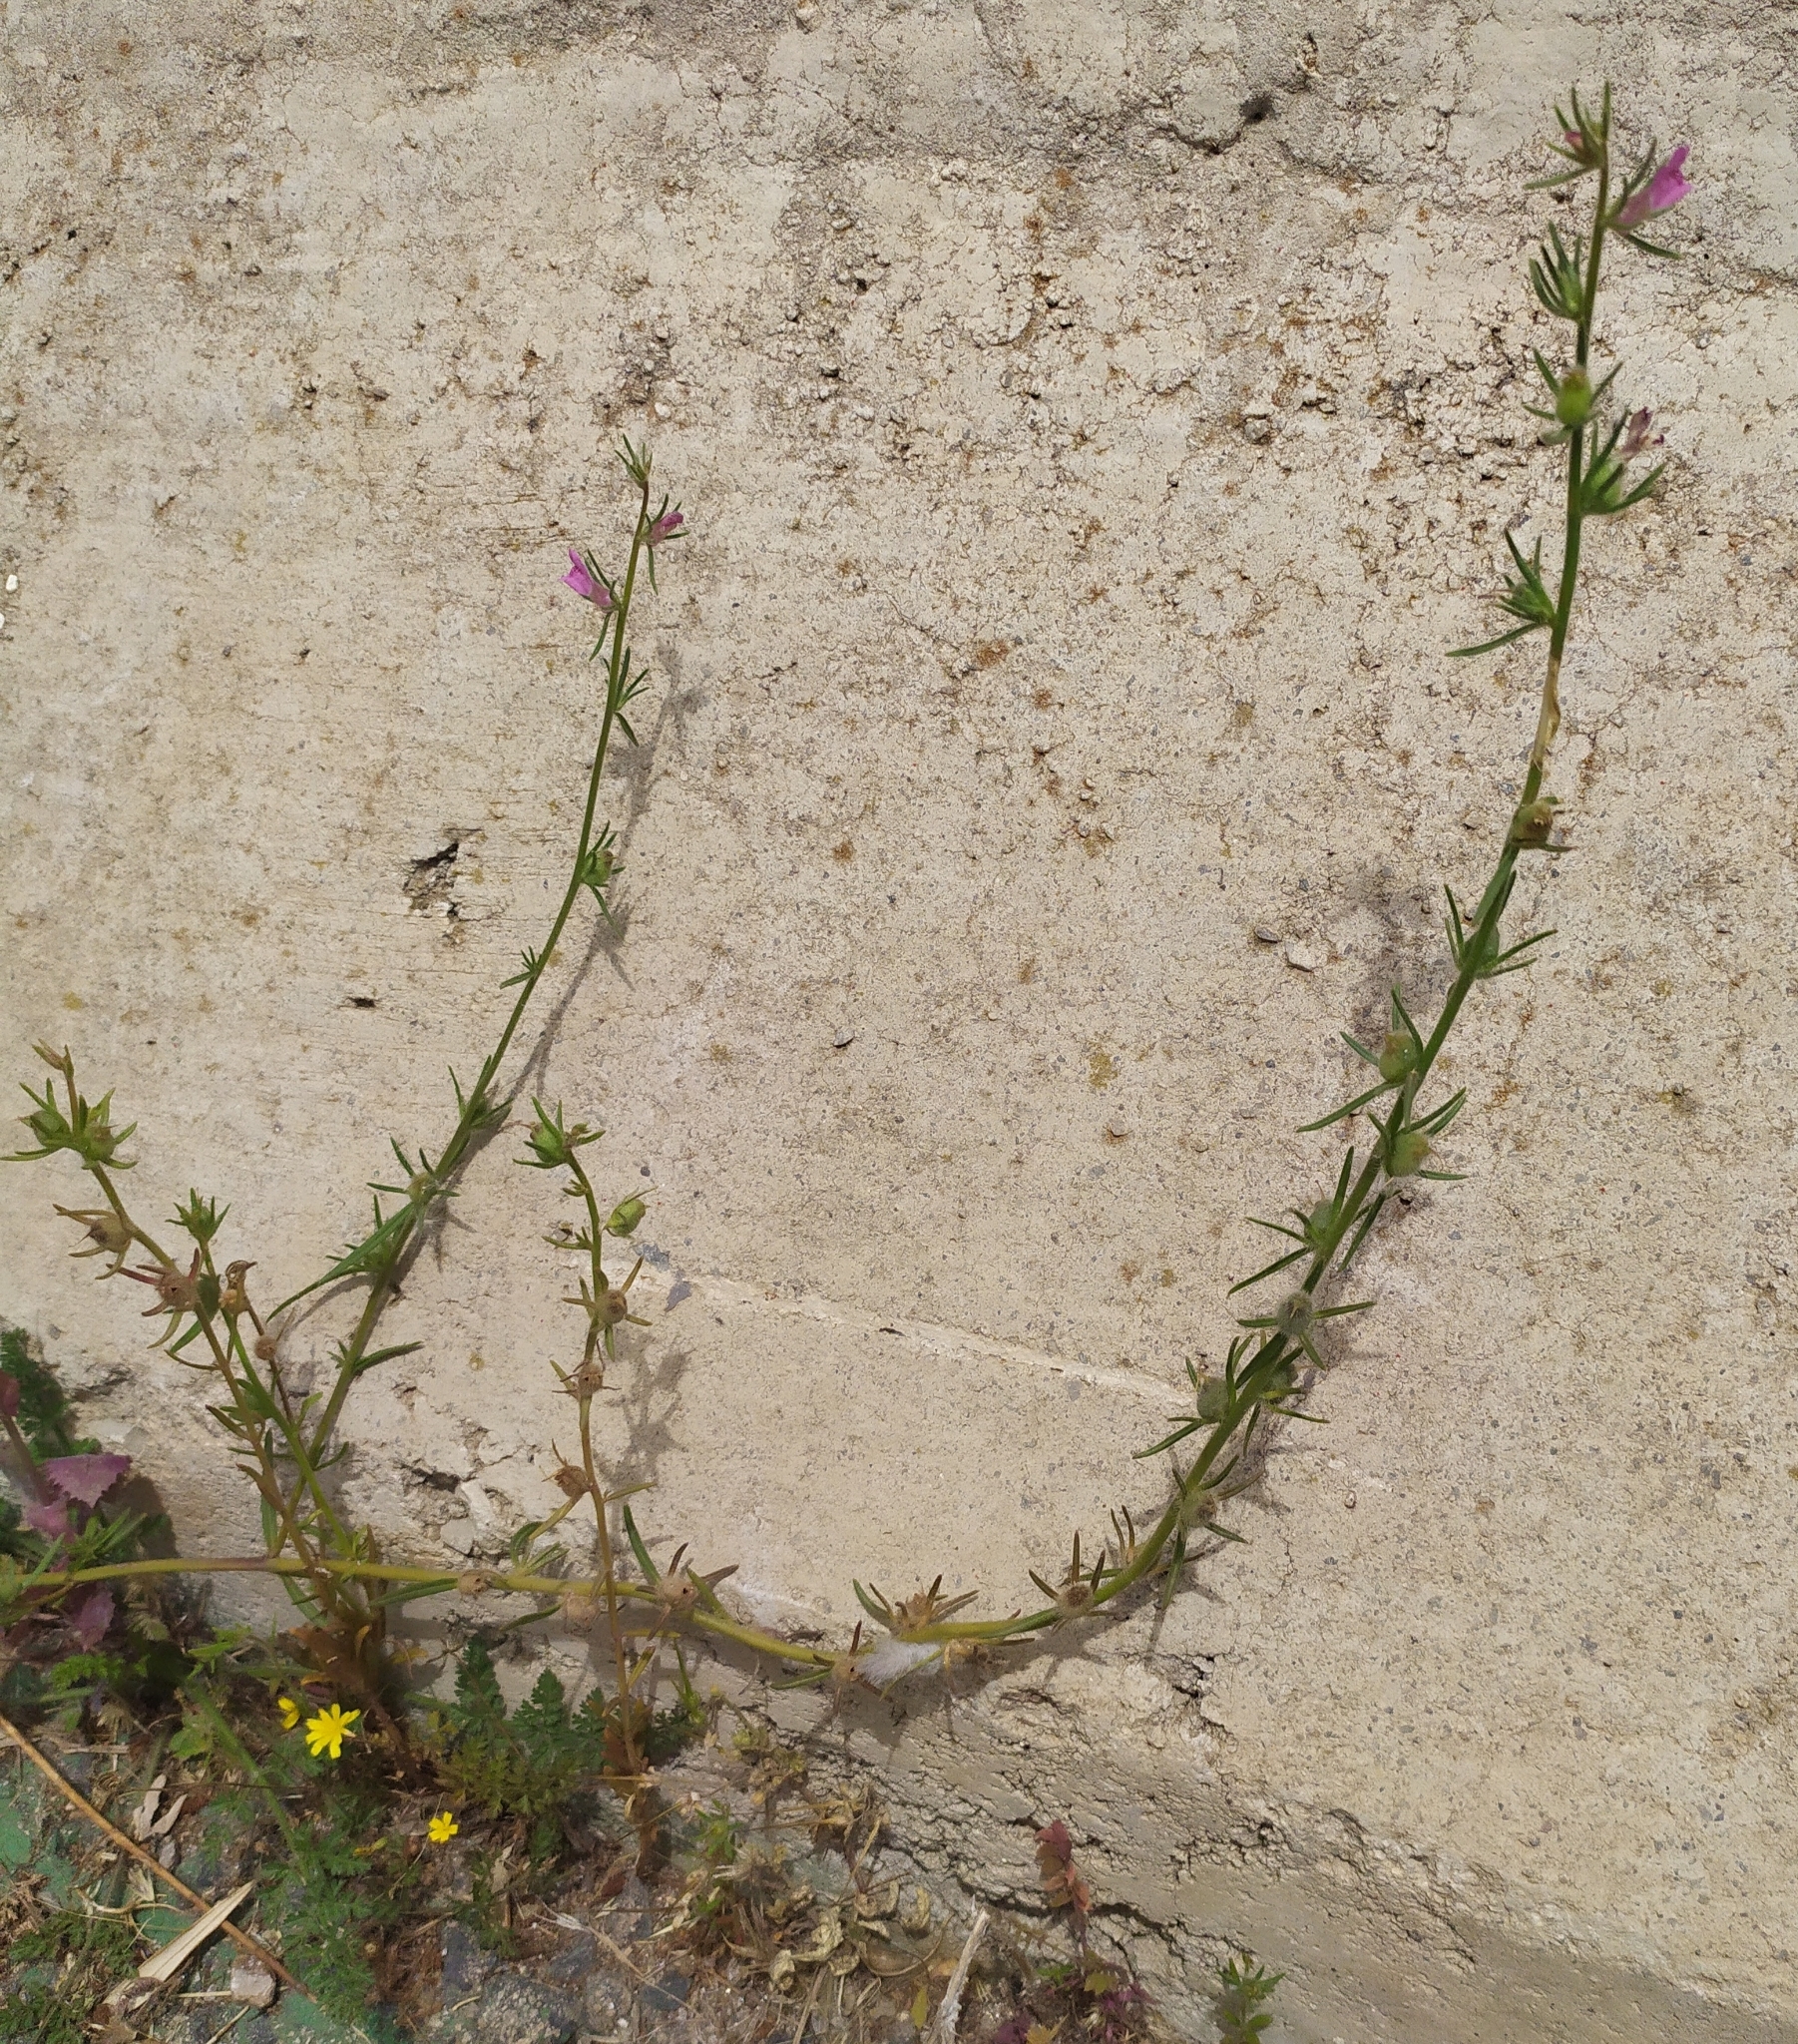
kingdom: Plantae
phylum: Tracheophyta
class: Magnoliopsida
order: Lamiales
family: Plantaginaceae
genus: Misopates
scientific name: Misopates orontium
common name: Weasel's-snout
